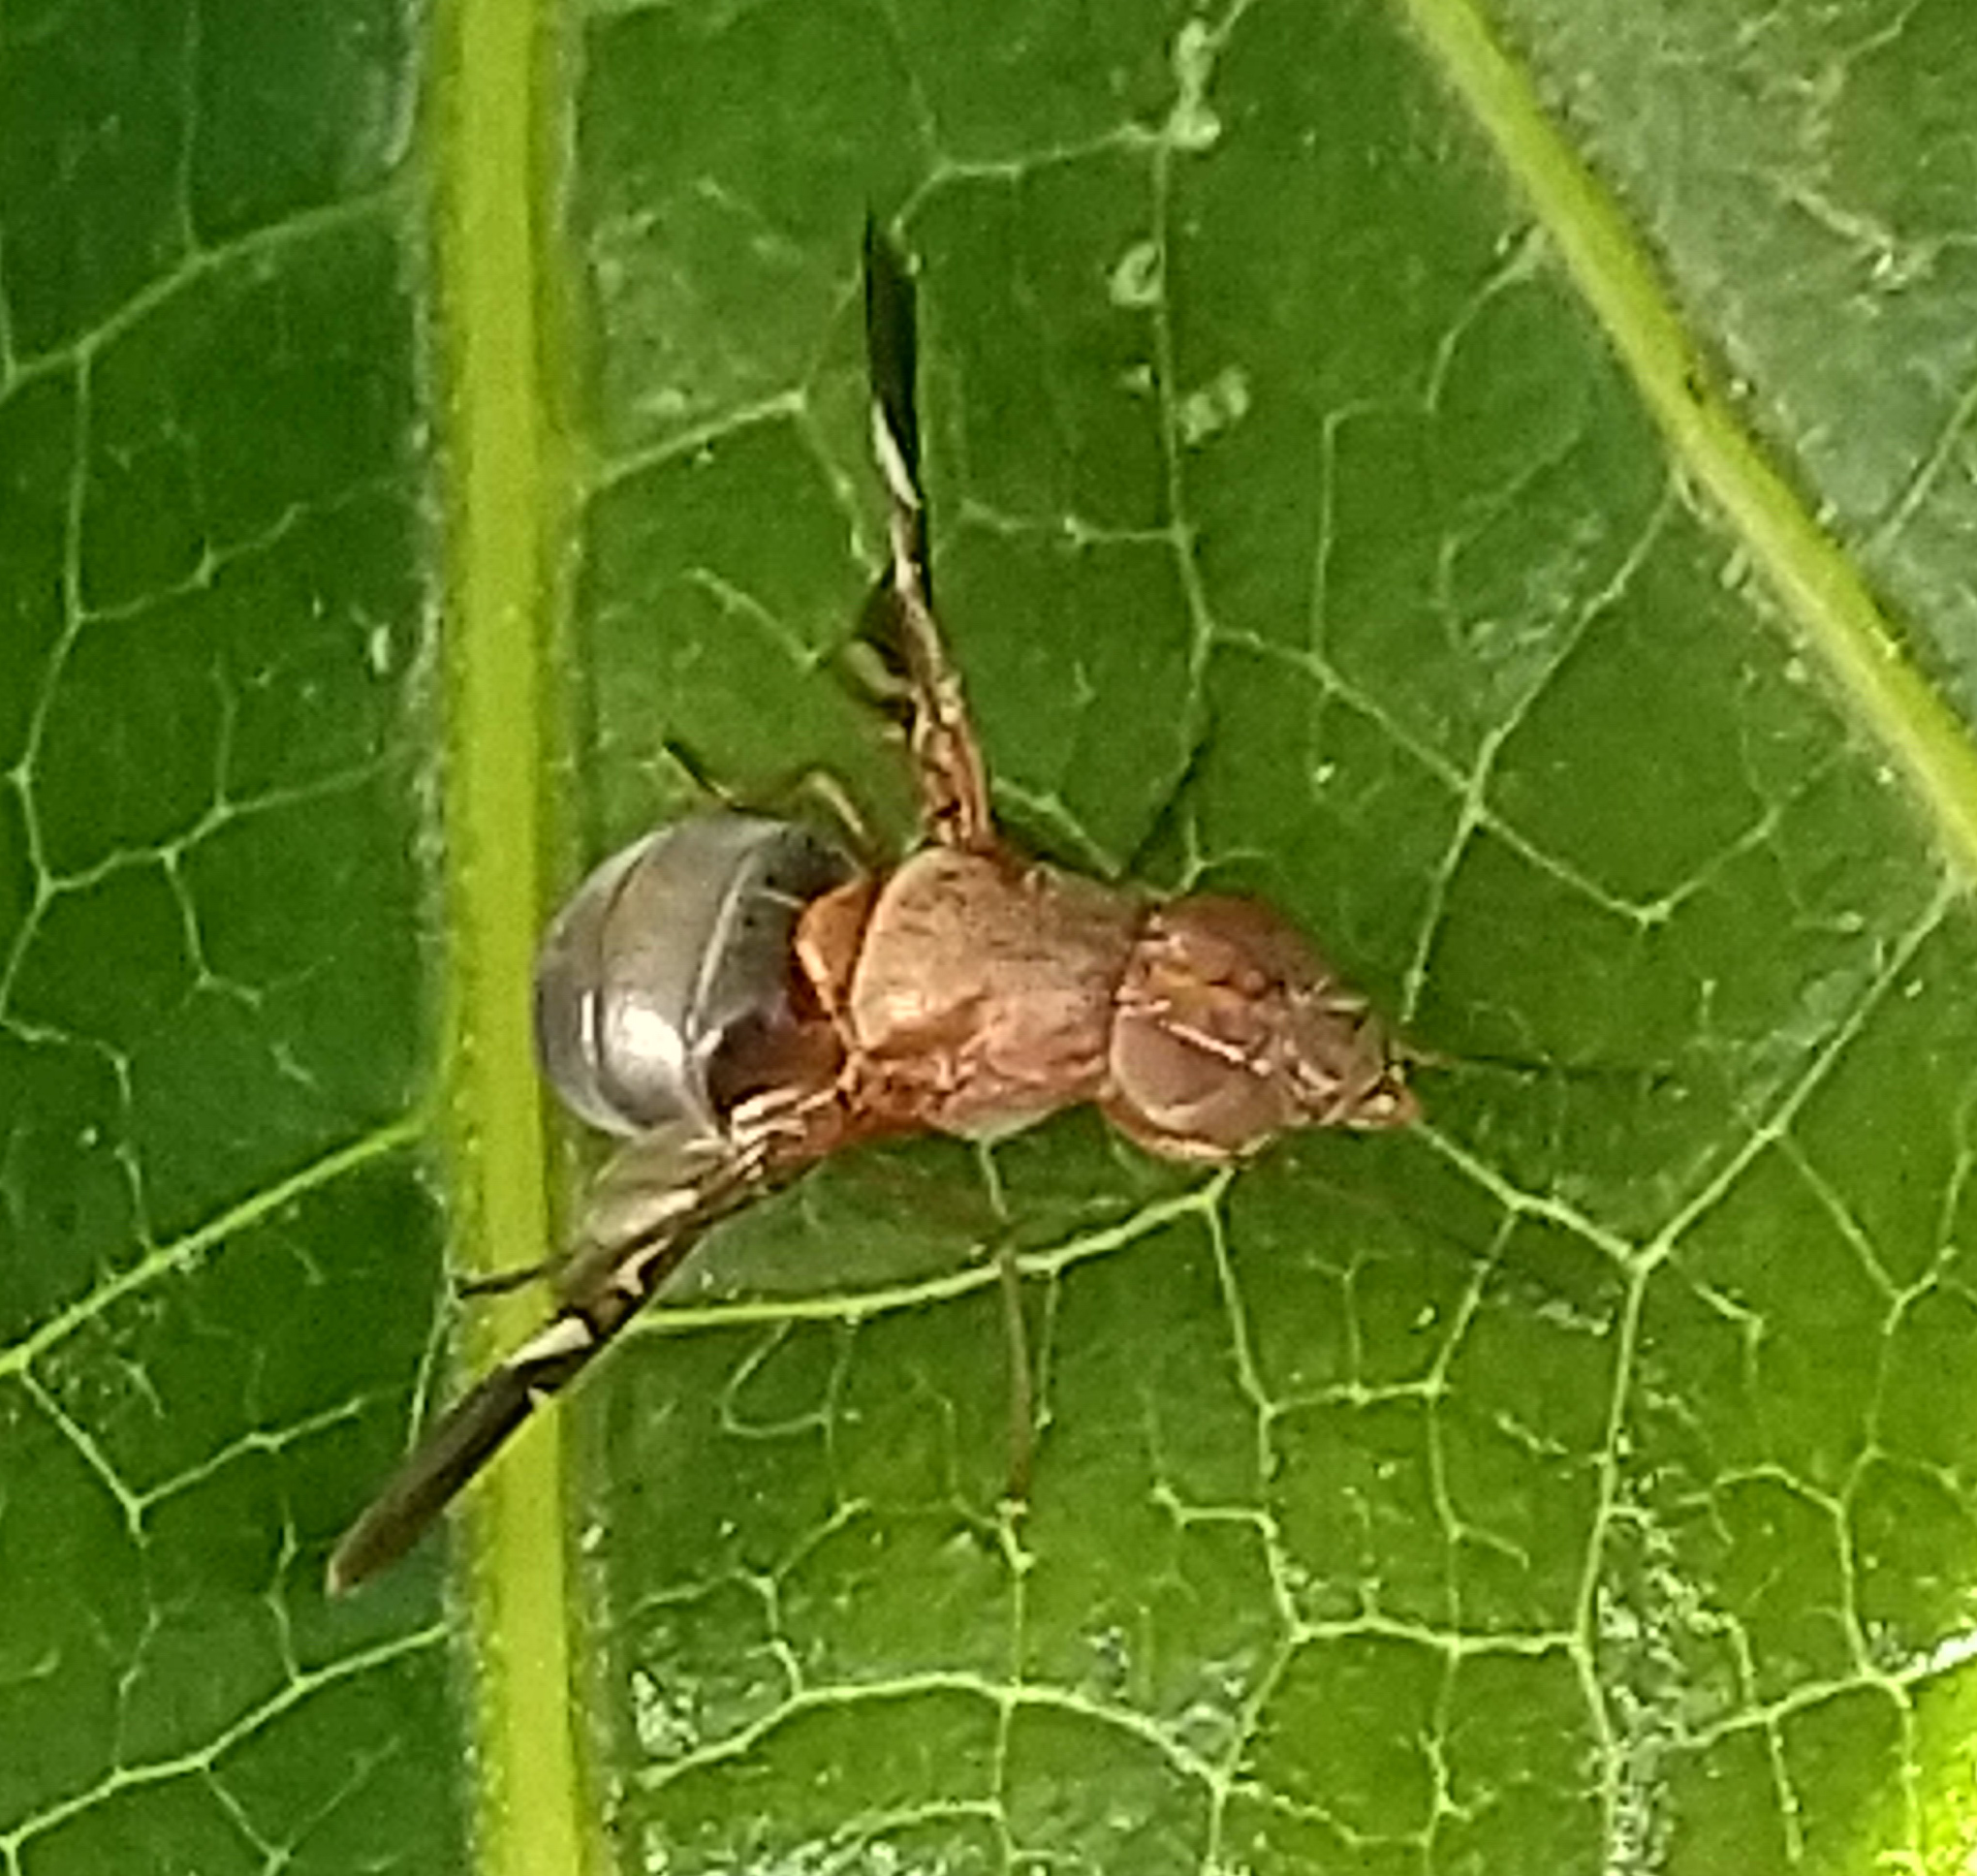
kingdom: Animalia
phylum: Arthropoda
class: Insecta
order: Diptera
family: Ulidiidae
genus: Delphinia
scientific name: Delphinia picta
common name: Common picture-winged fly
